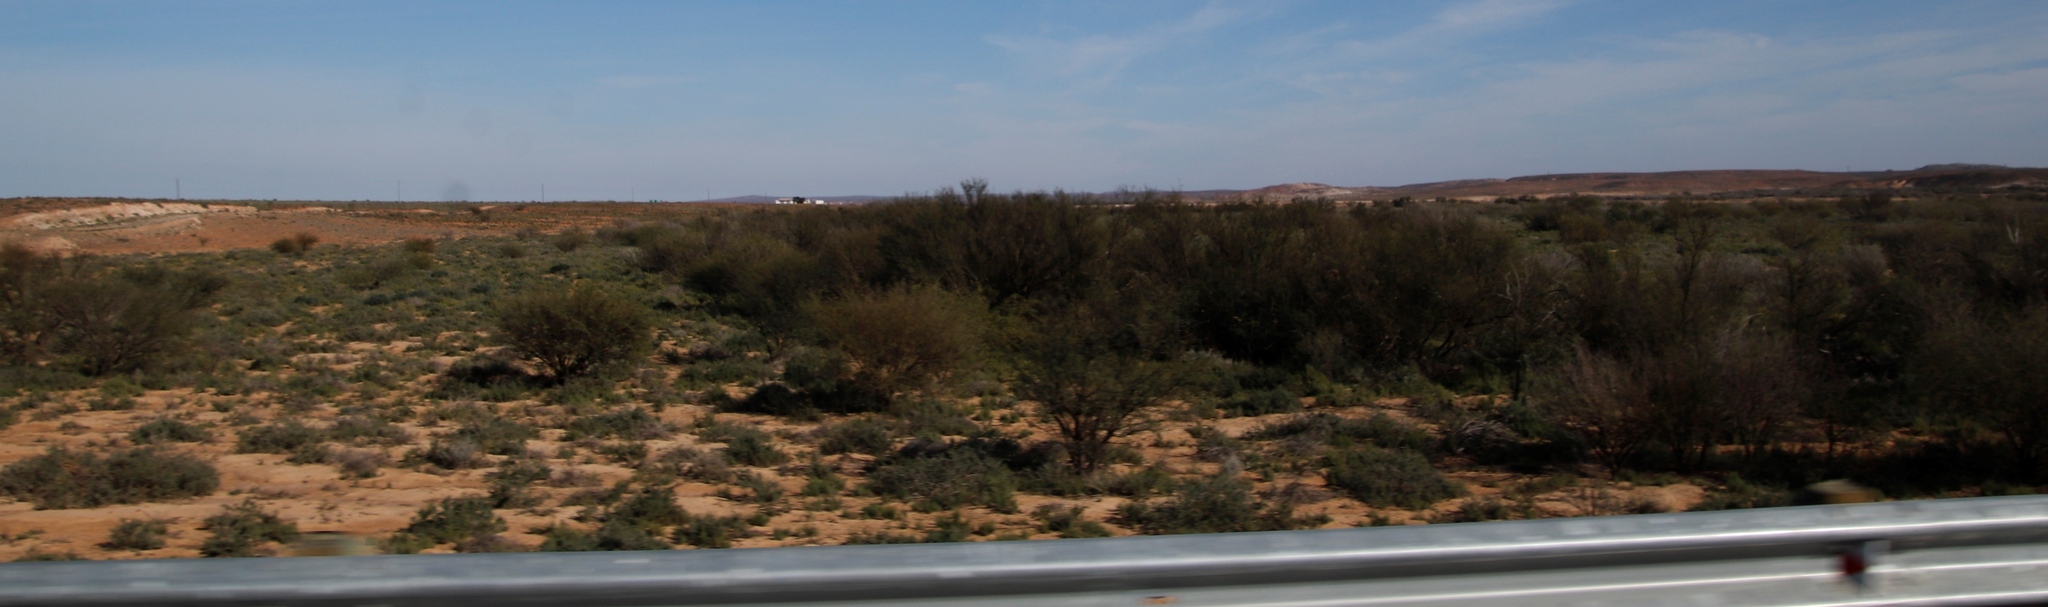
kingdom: Plantae
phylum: Tracheophyta
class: Magnoliopsida
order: Fabales
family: Fabaceae
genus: Vachellia
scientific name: Vachellia karroo
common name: Sweet thorn
